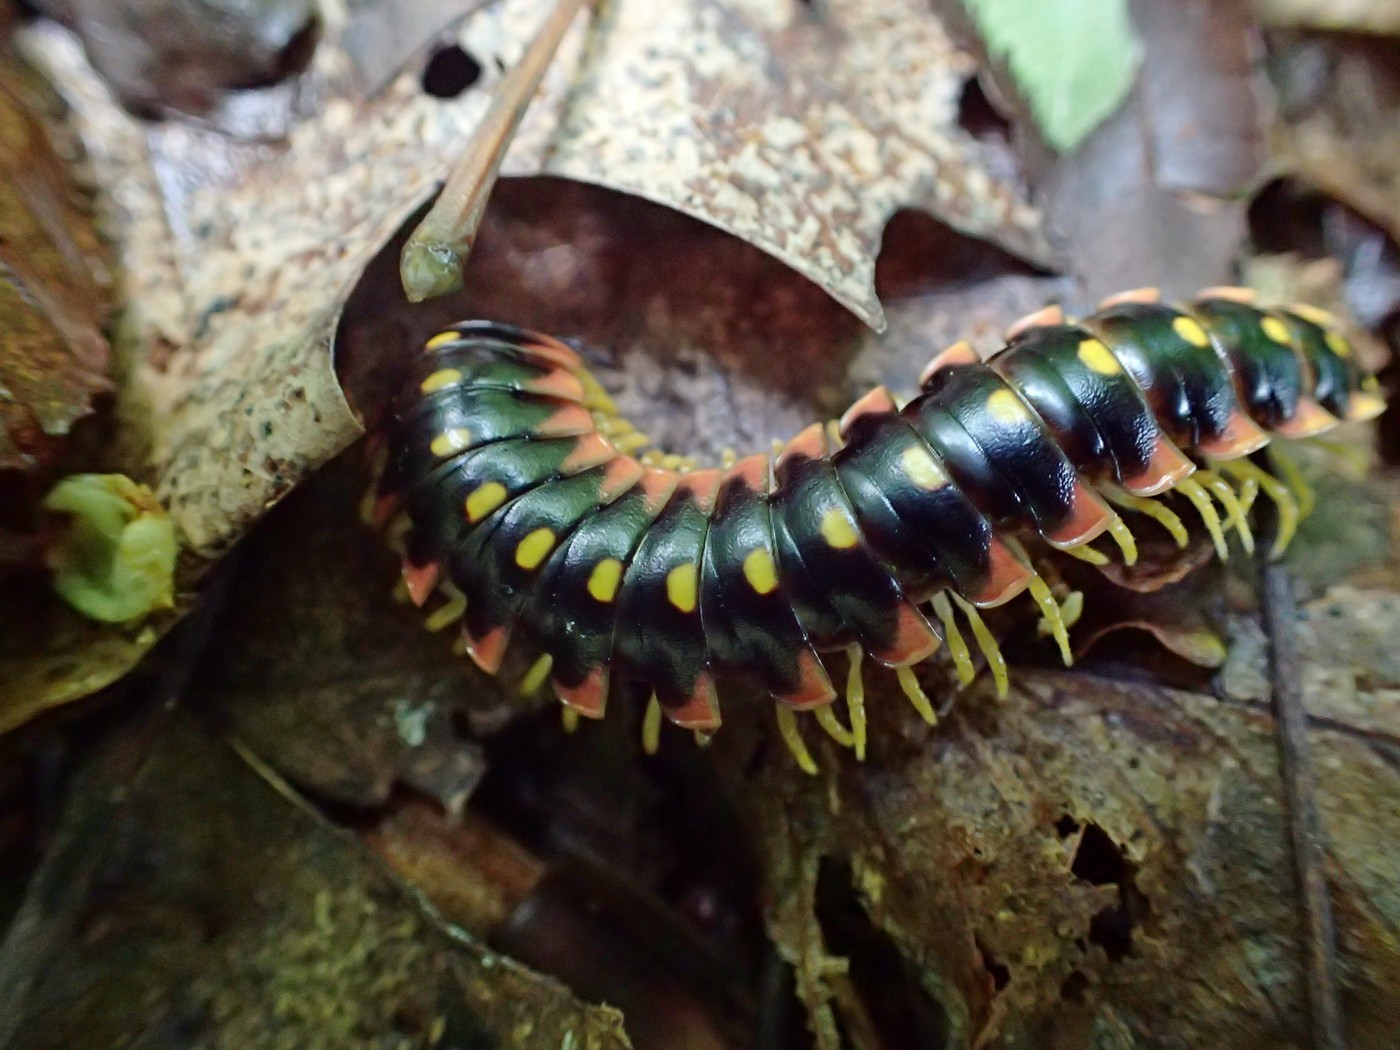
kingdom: Animalia
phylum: Arthropoda
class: Diplopoda
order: Polydesmida
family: Xystodesmidae
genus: Apheloria
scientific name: Apheloria virginiensis
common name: Black-and-gold flat millipede
